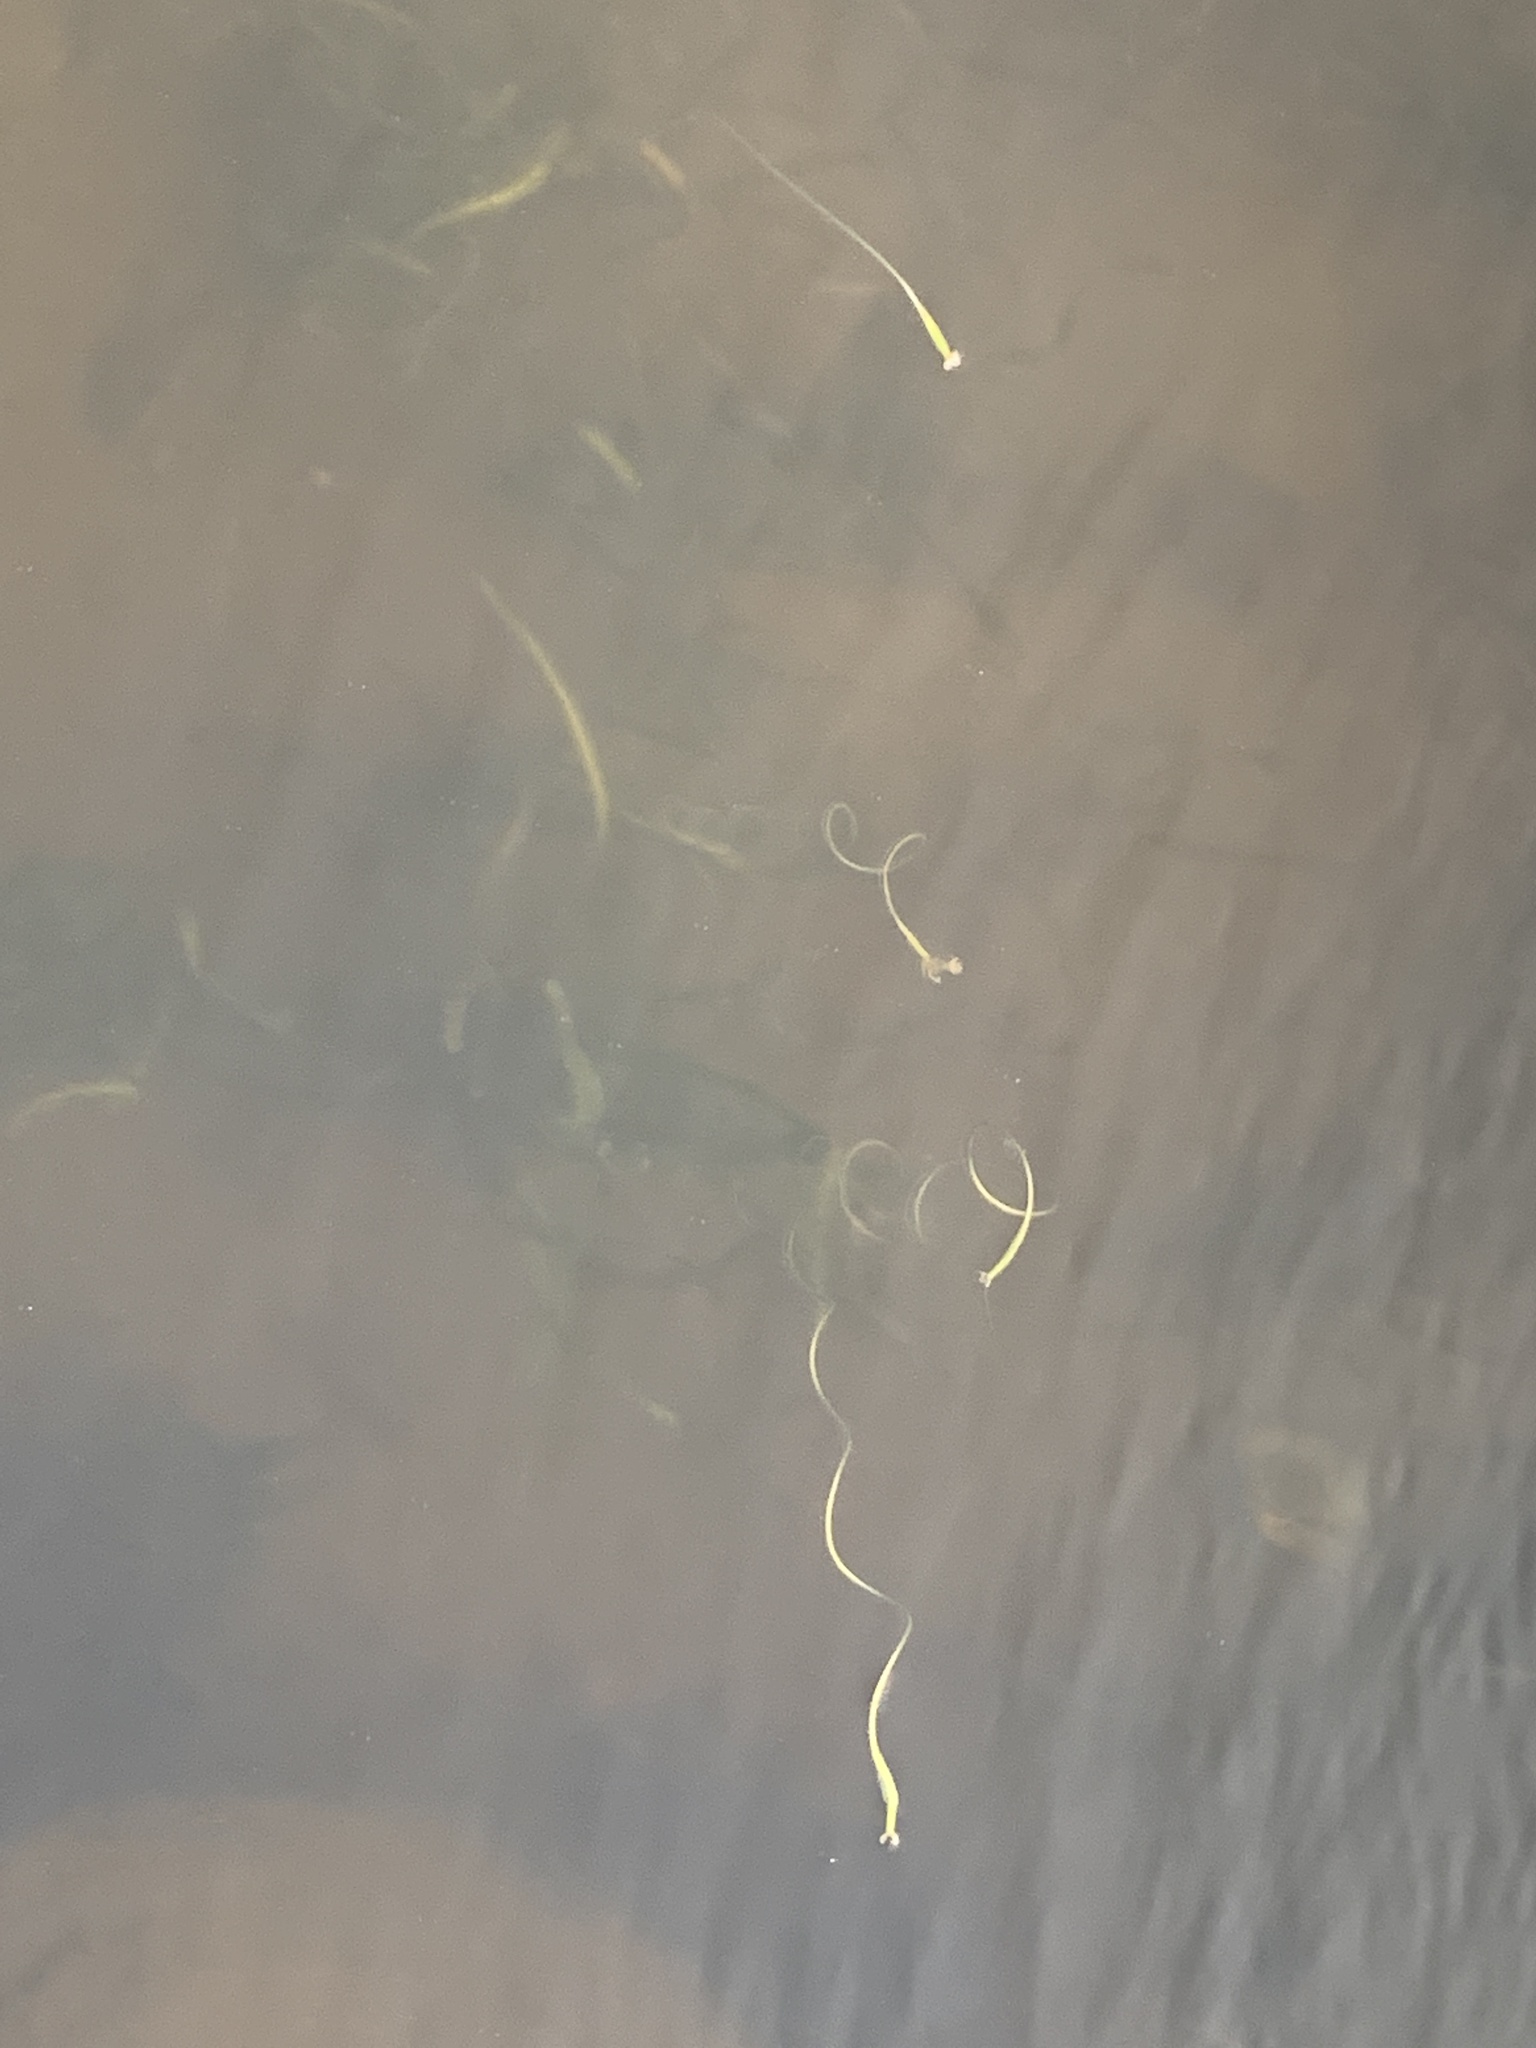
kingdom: Plantae
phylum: Tracheophyta
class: Liliopsida
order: Alismatales
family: Hydrocharitaceae
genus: Vallisneria
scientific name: Vallisneria americana
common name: American eelgrass
